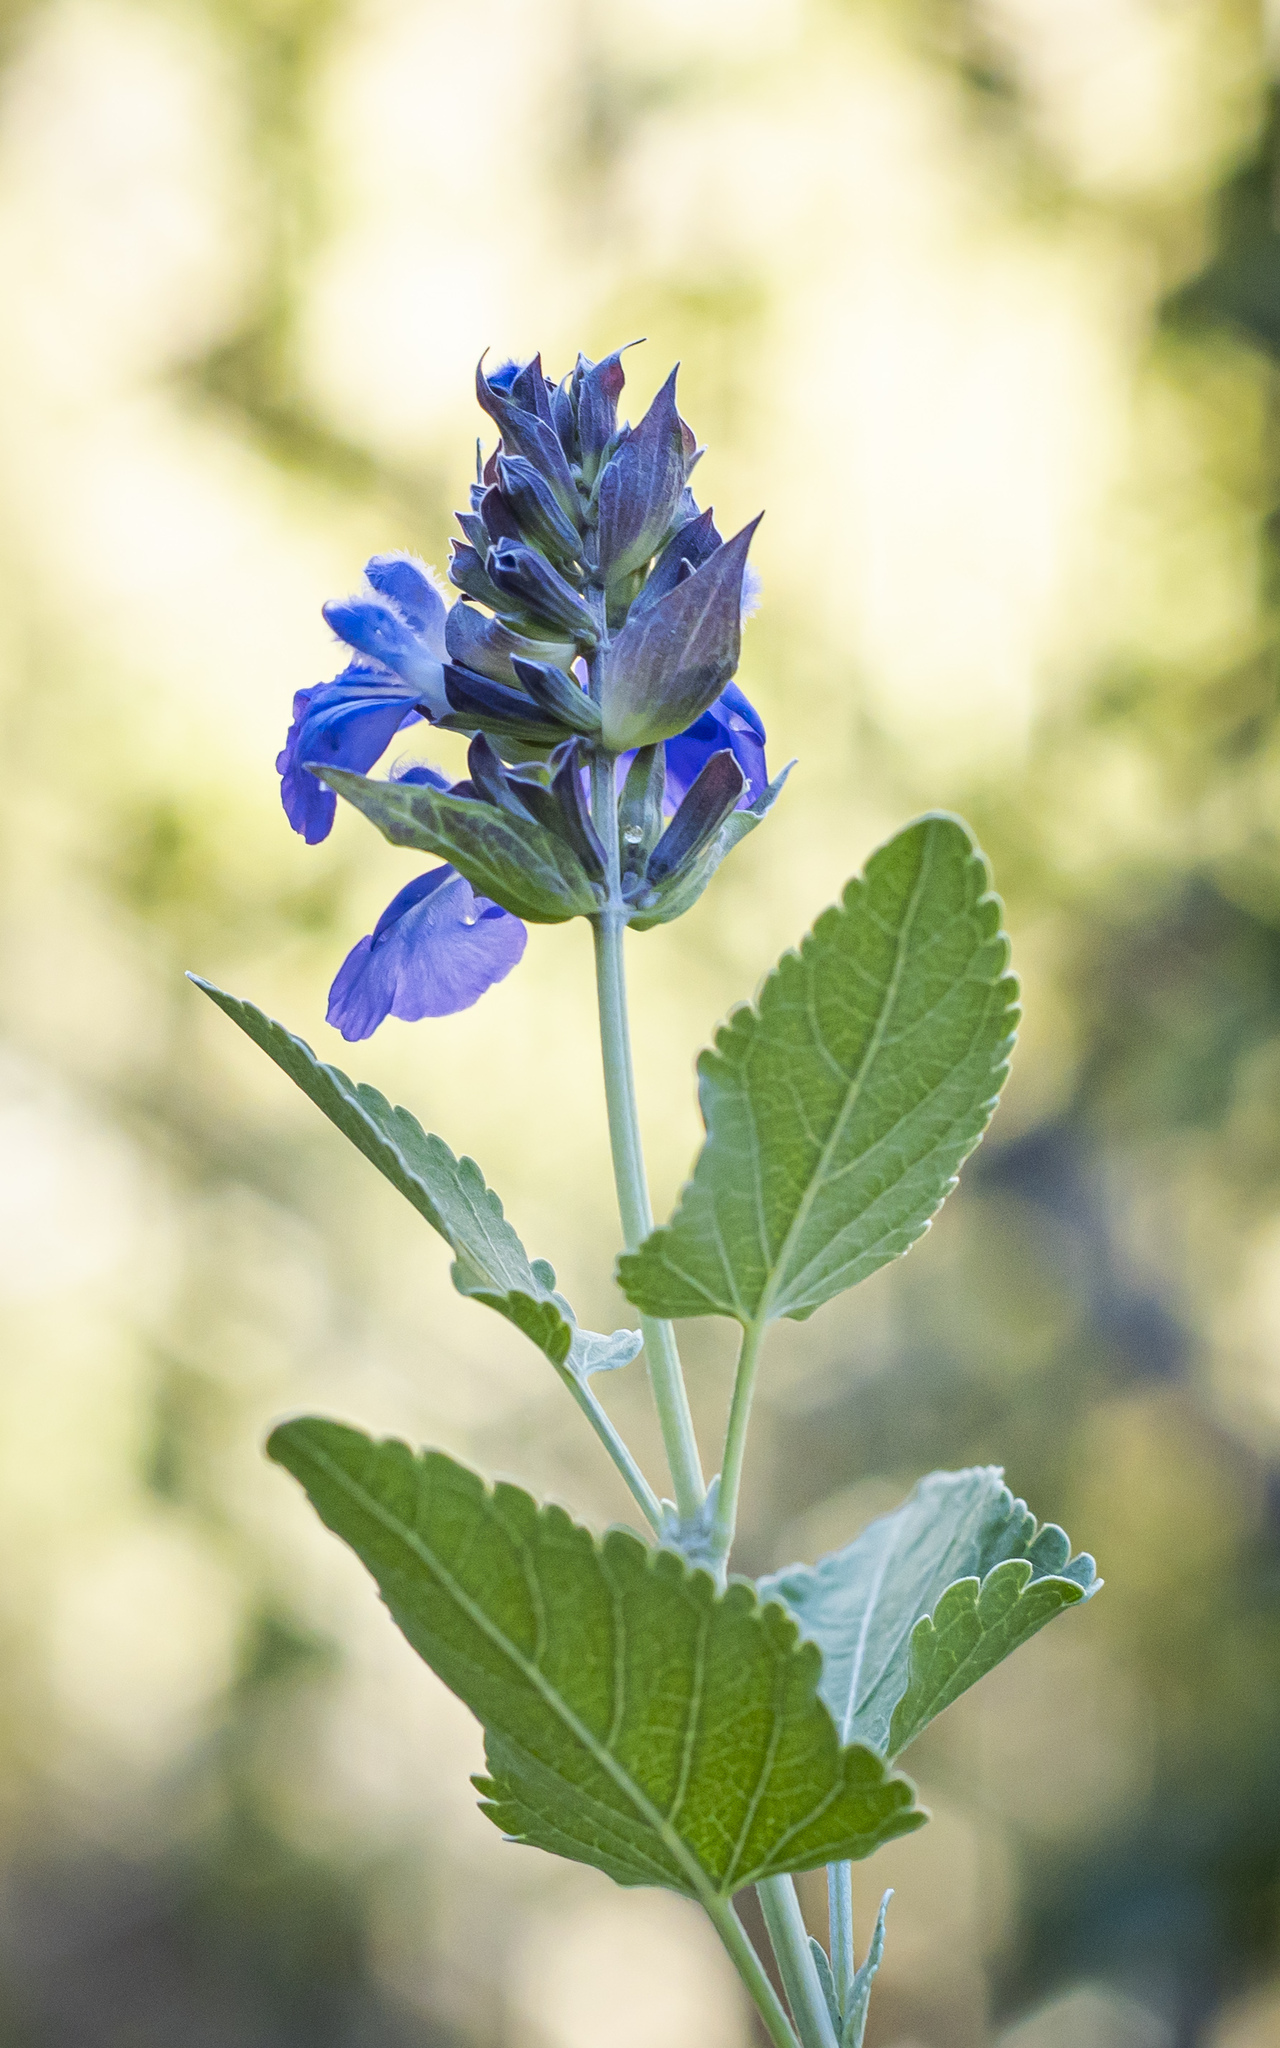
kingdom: Plantae
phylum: Tracheophyta
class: Magnoliopsida
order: Lamiales
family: Lamiaceae
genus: Salvia
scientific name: Salvia similis
